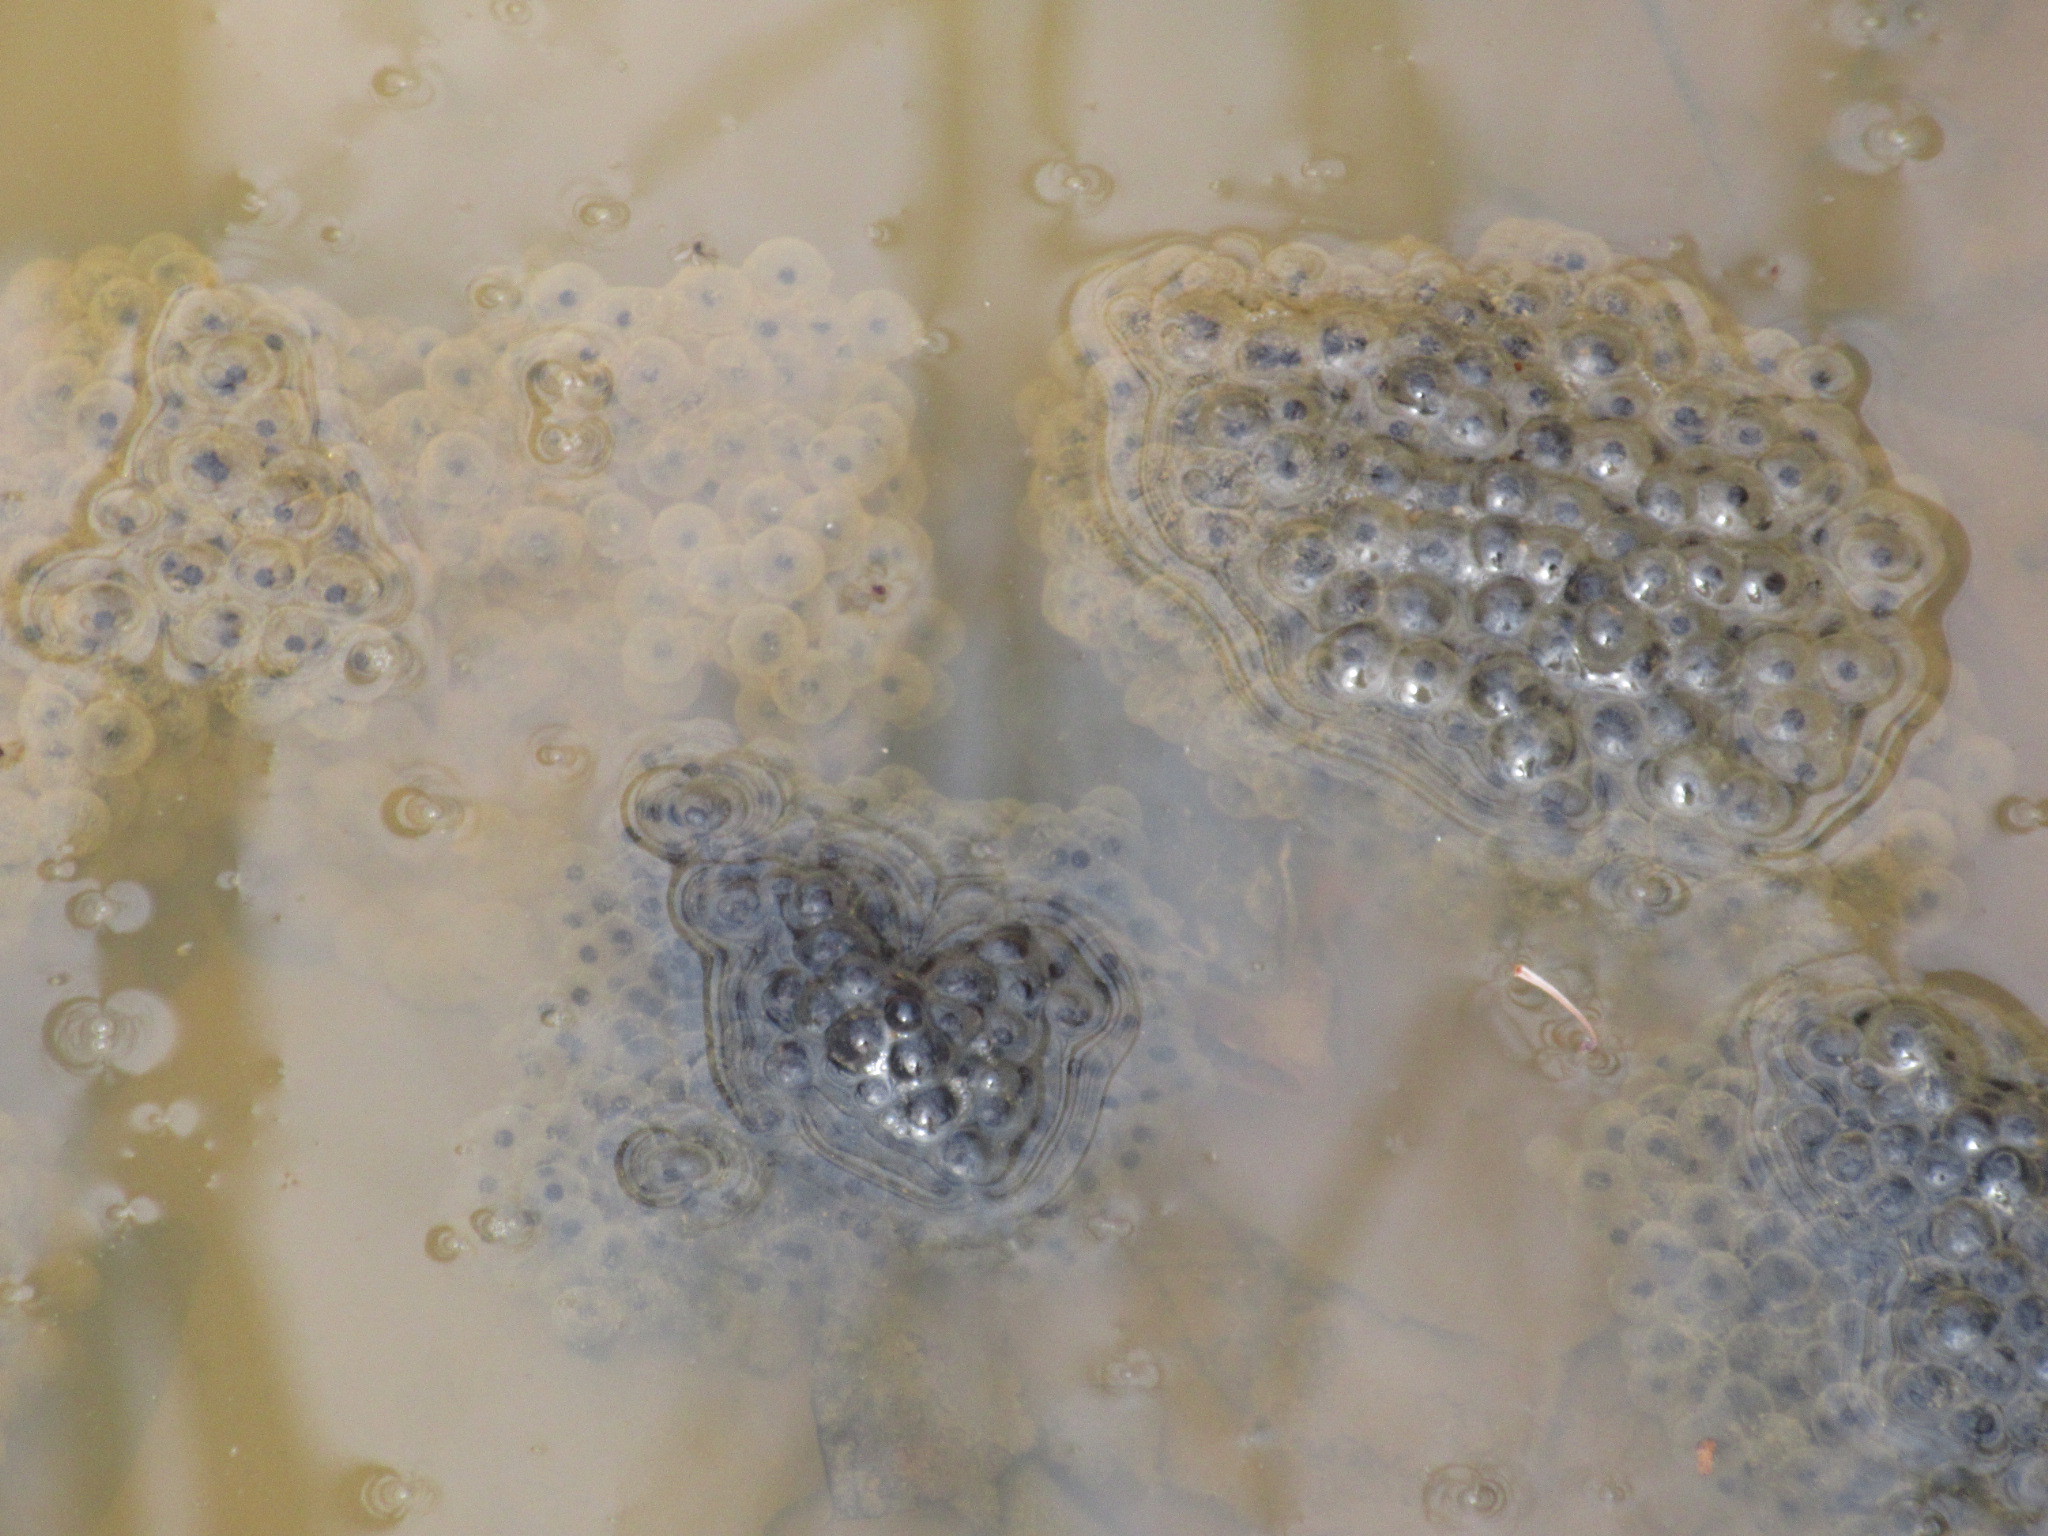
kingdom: Animalia
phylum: Chordata
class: Amphibia
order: Anura
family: Ranidae
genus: Lithobates
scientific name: Lithobates sylvaticus
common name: Wood frog
